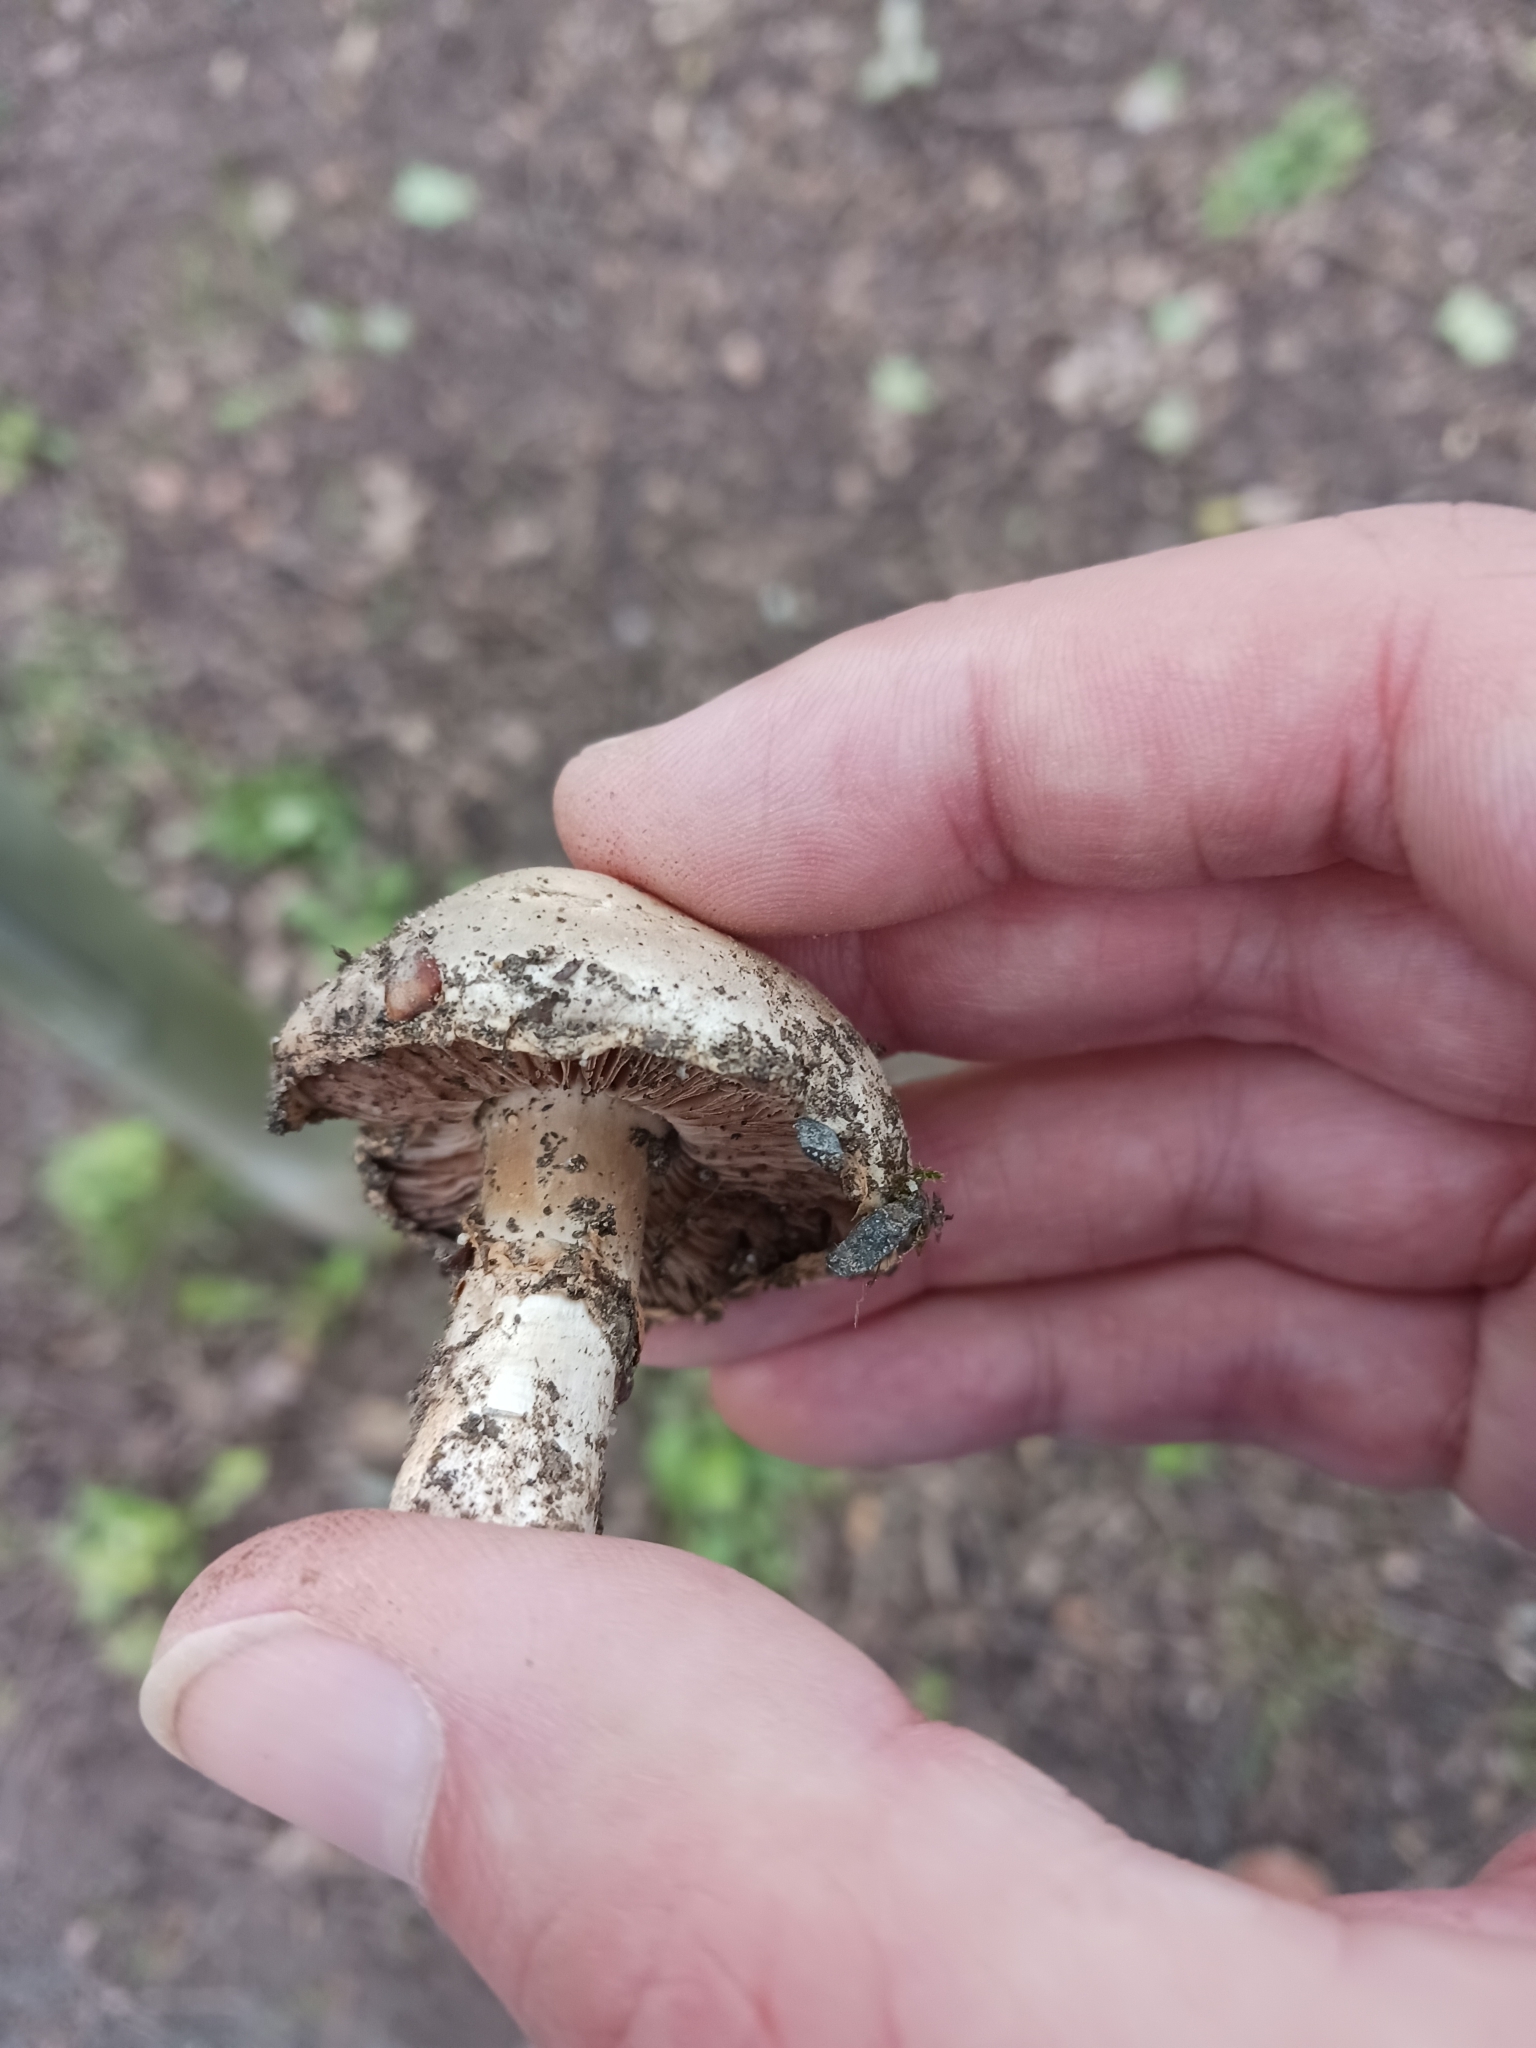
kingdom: Fungi
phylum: Basidiomycota
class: Agaricomycetes
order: Agaricales
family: Agaricaceae
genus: Agaricus
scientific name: Agaricus bitorquis
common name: Pavement mushroom
